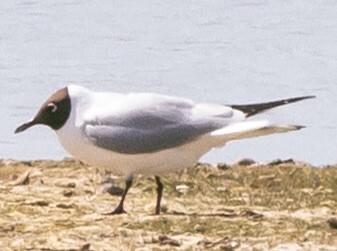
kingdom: Animalia
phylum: Chordata
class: Aves
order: Charadriiformes
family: Laridae
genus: Chroicocephalus
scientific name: Chroicocephalus ridibundus
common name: Black-headed gull
